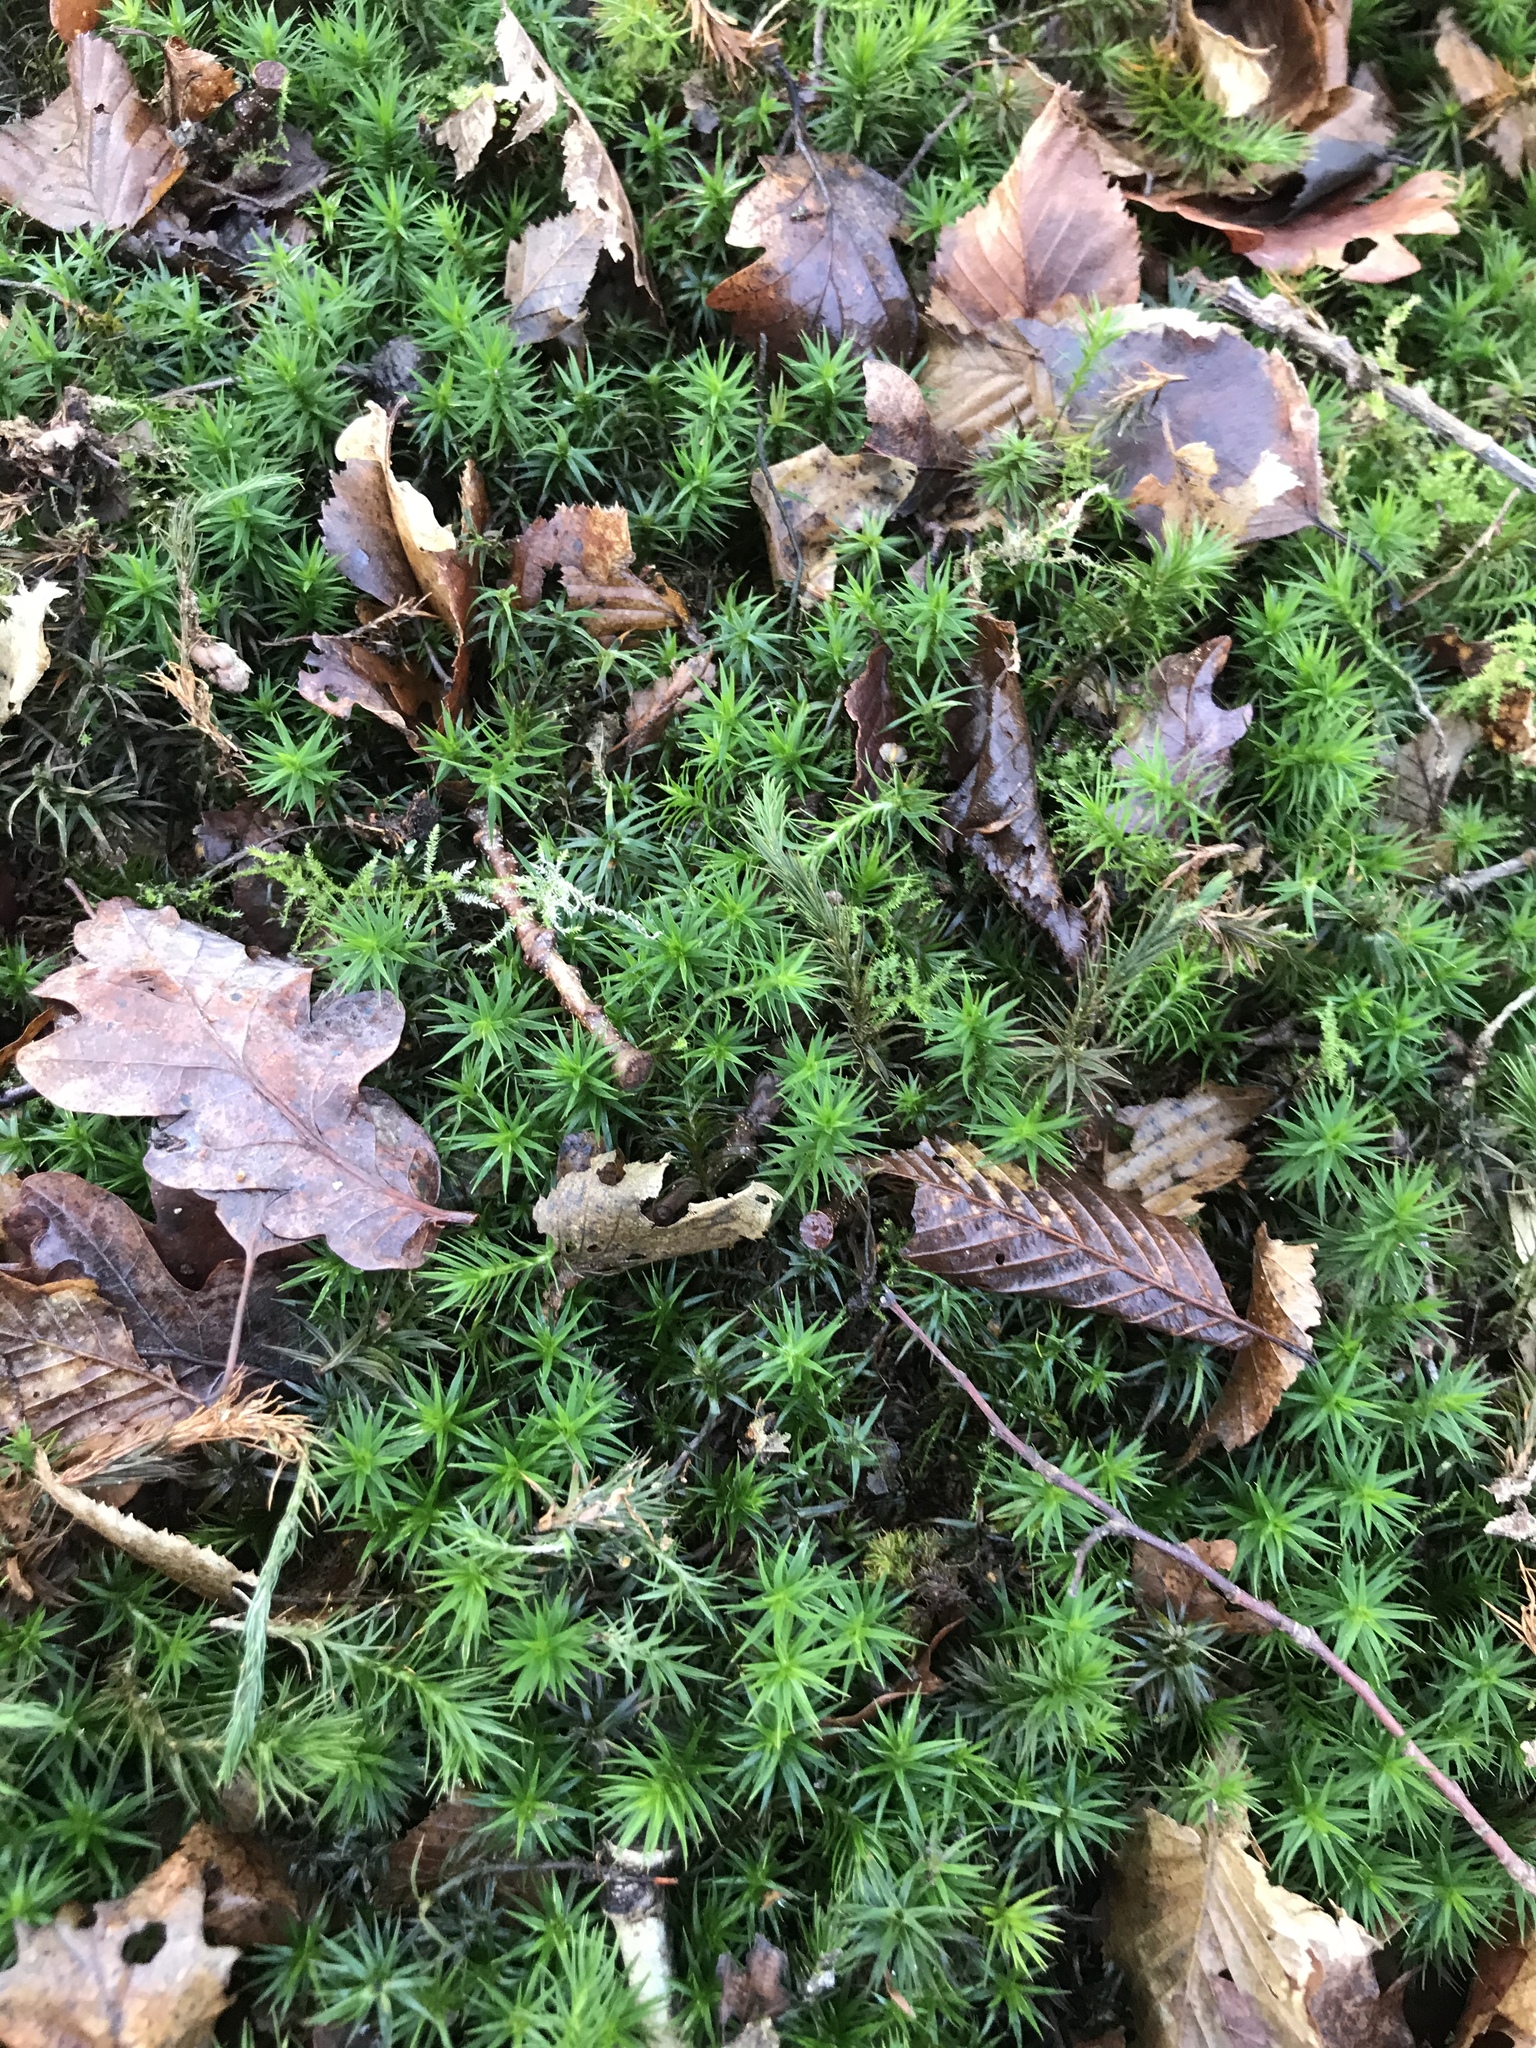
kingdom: Plantae
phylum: Bryophyta
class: Polytrichopsida
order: Polytrichales
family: Polytrichaceae
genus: Polytrichum
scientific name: Polytrichum formosum
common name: Bank haircap moss
